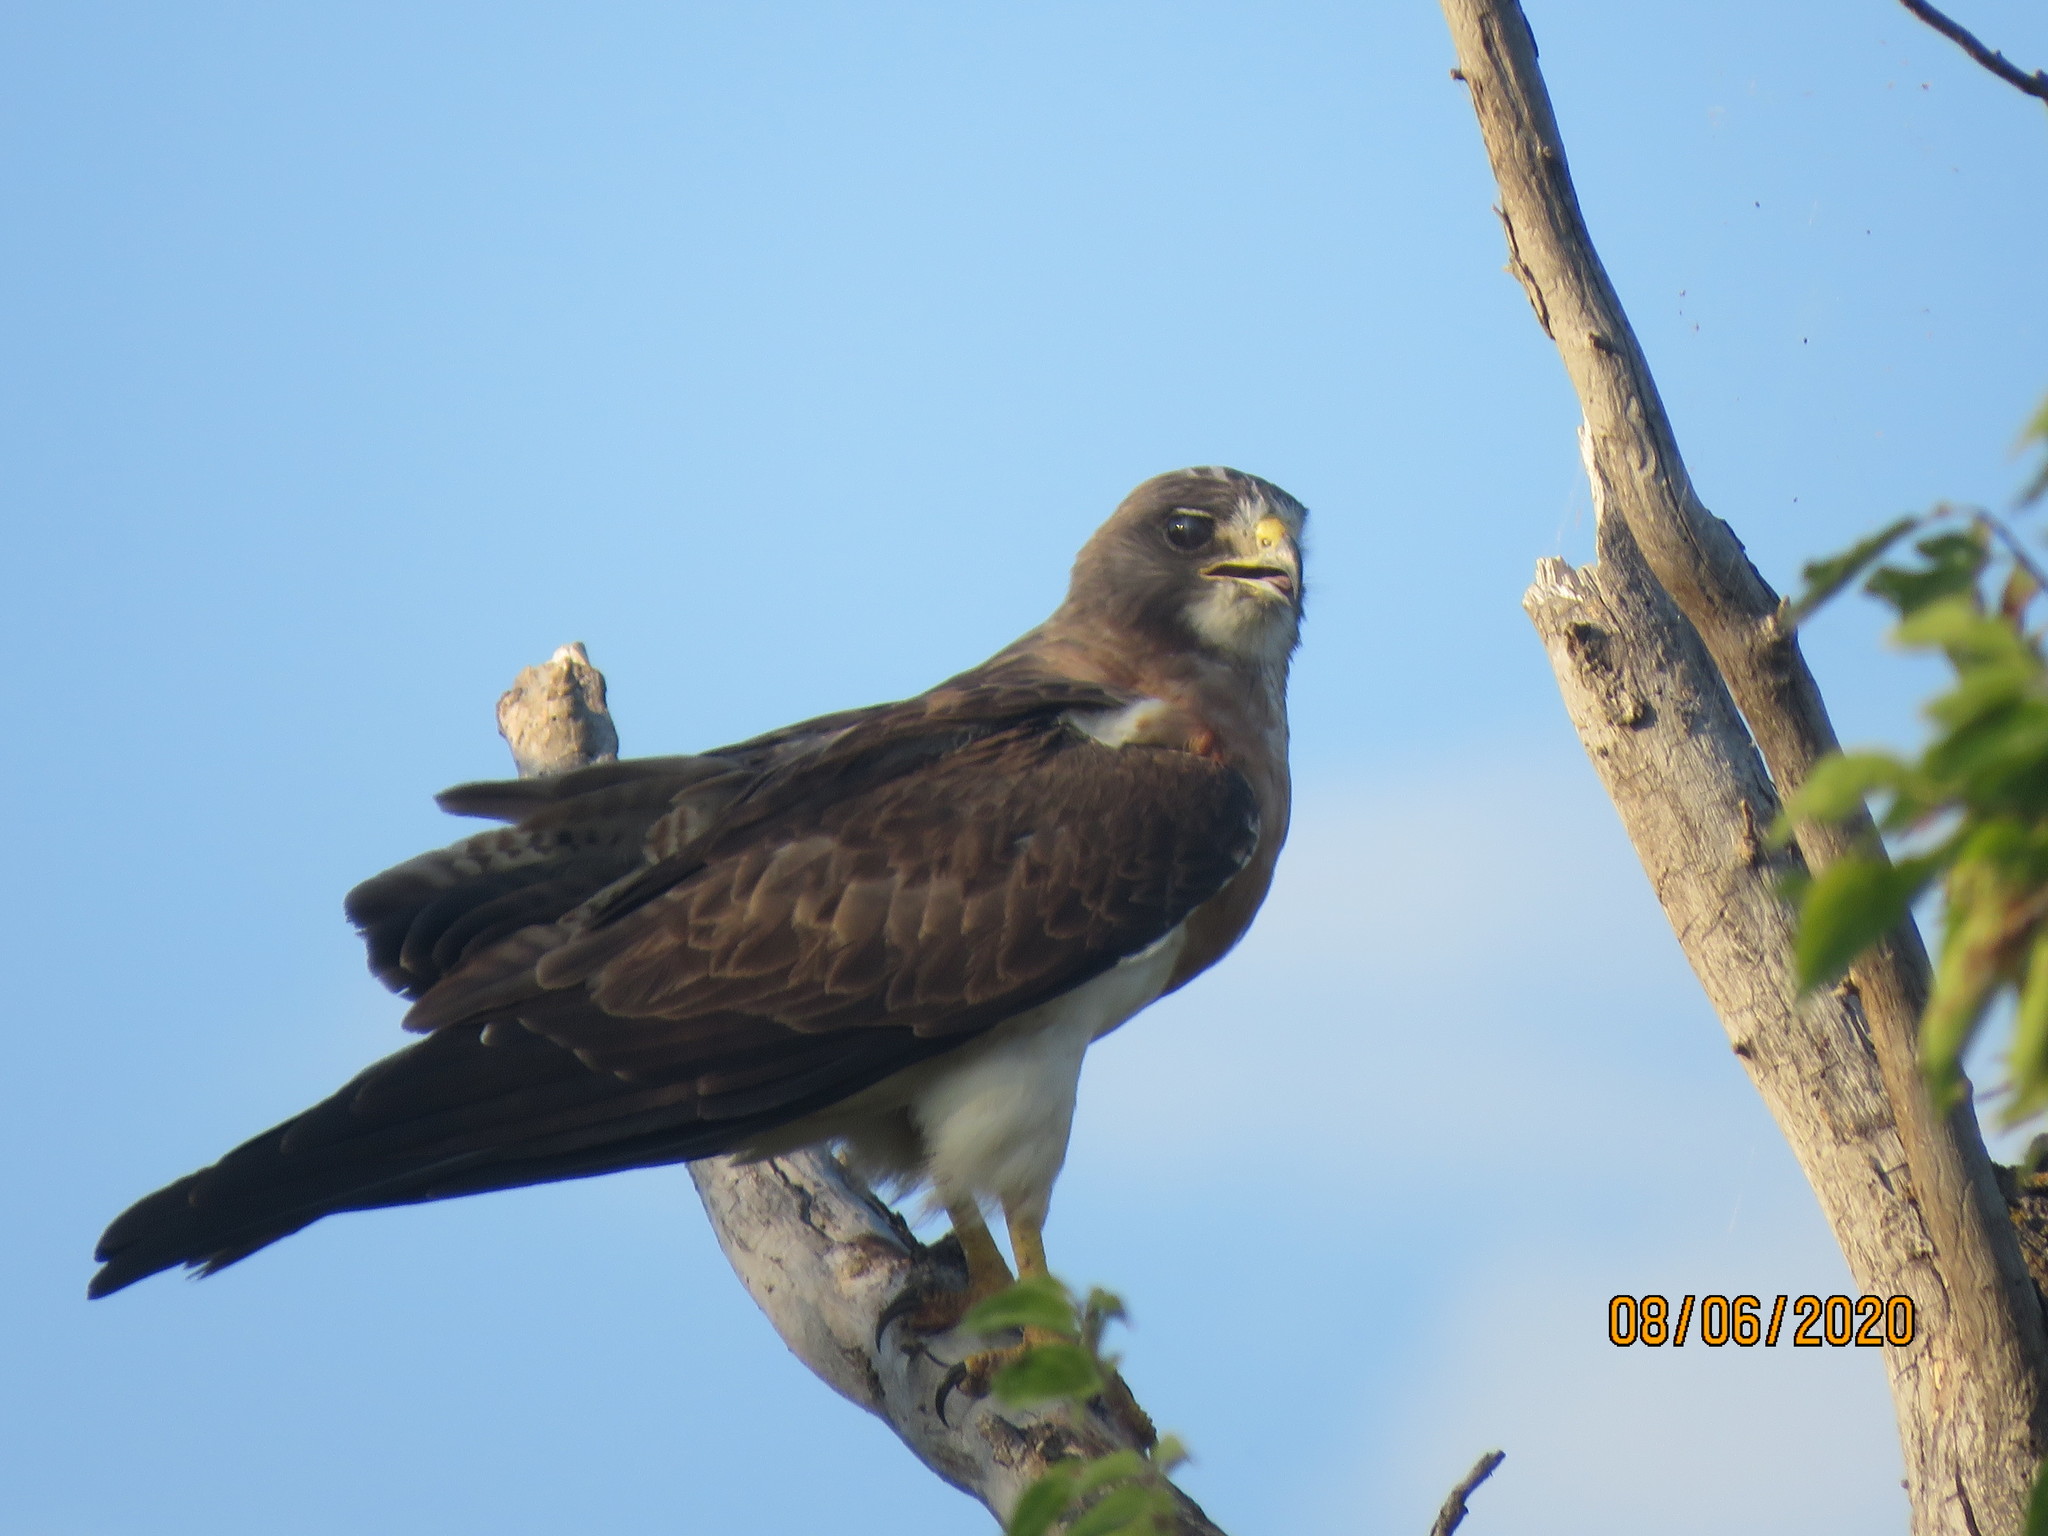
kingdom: Animalia
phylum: Chordata
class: Aves
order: Accipitriformes
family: Accipitridae
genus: Buteo
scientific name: Buteo swainsoni
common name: Swainson's hawk
